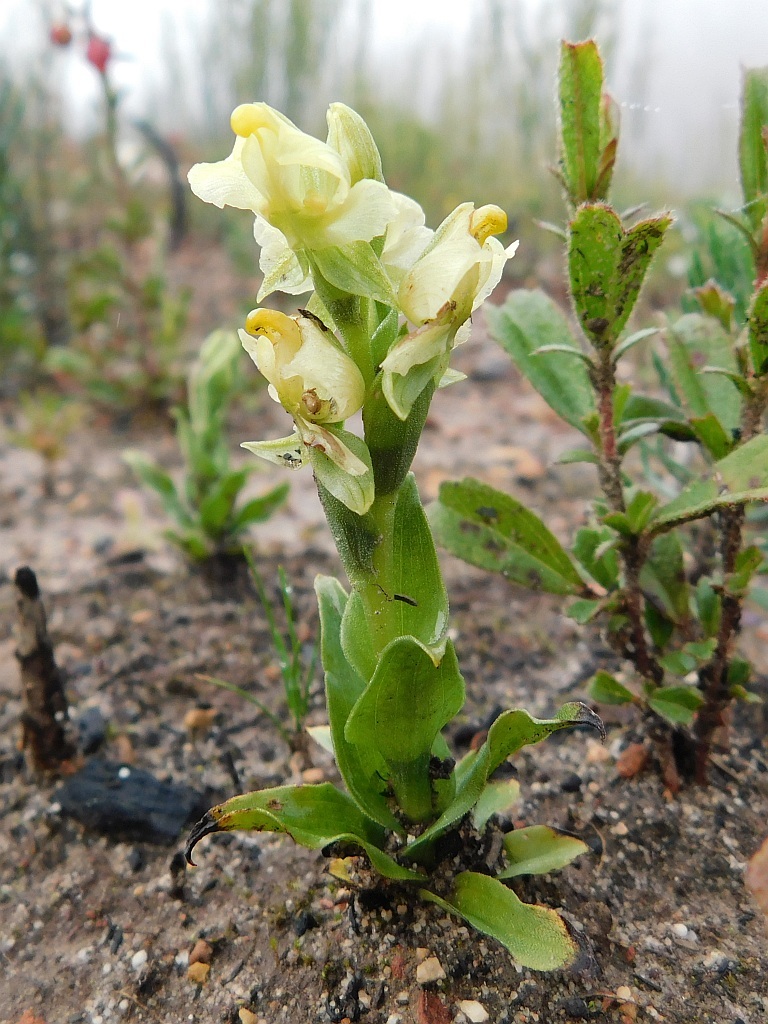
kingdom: Plantae
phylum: Tracheophyta
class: Liliopsida
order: Asparagales
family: Orchidaceae
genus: Pterygodium
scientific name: Pterygodium alatum
